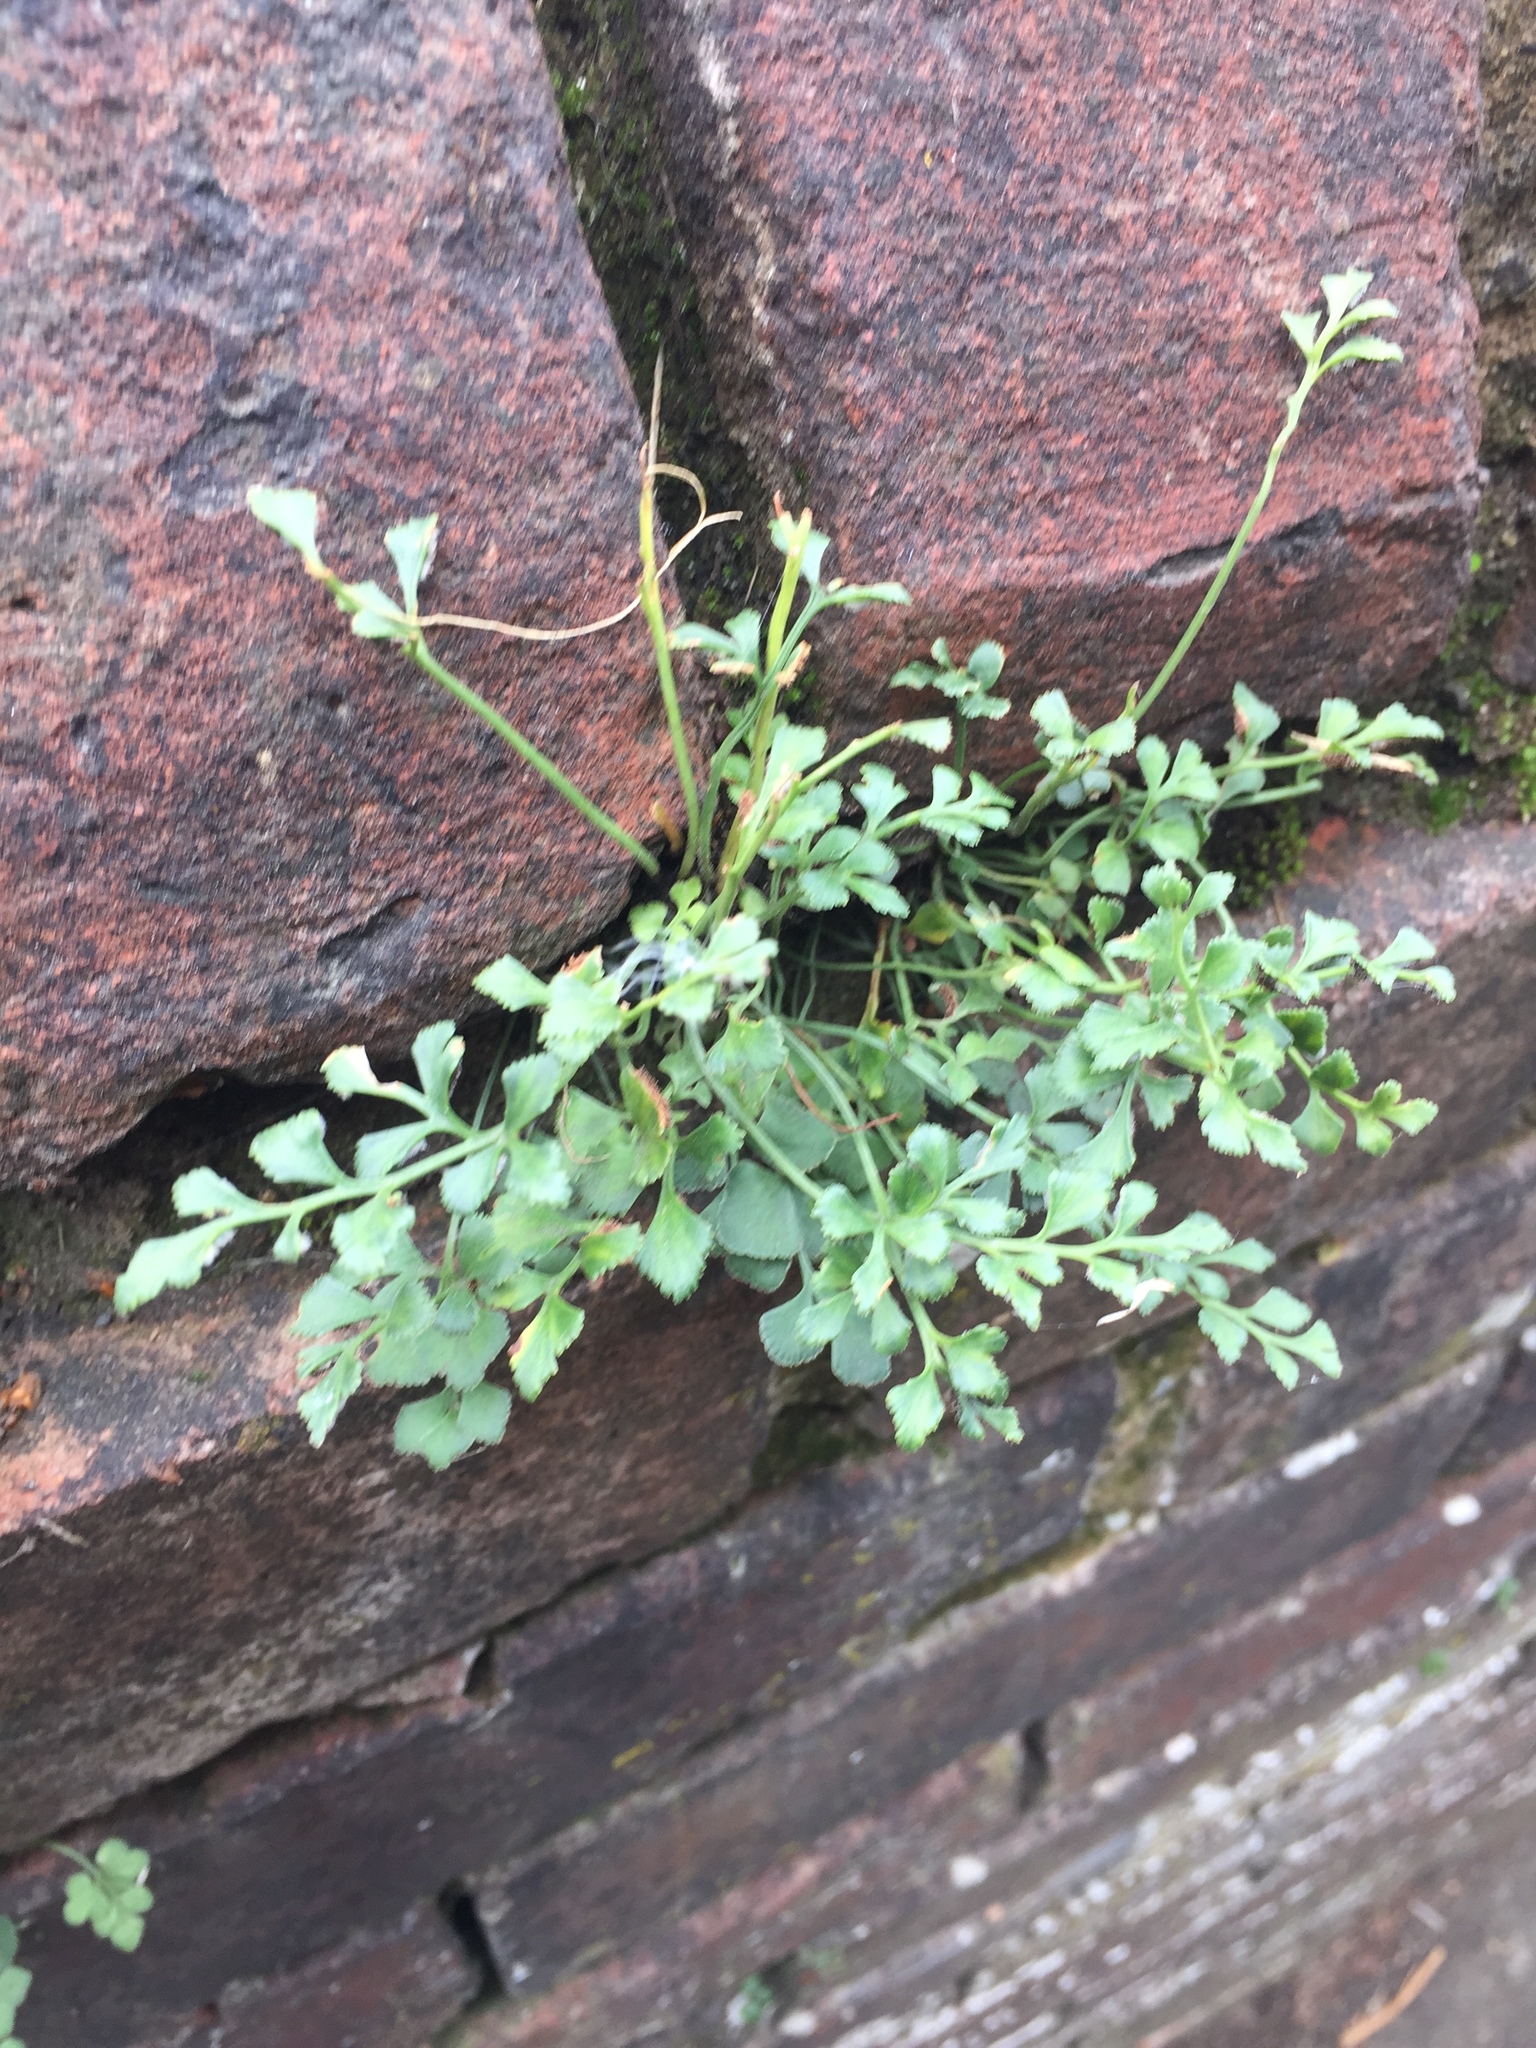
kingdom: Plantae
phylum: Tracheophyta
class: Polypodiopsida
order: Polypodiales
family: Aspleniaceae
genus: Asplenium
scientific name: Asplenium ruta-muraria
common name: Wall-rue
